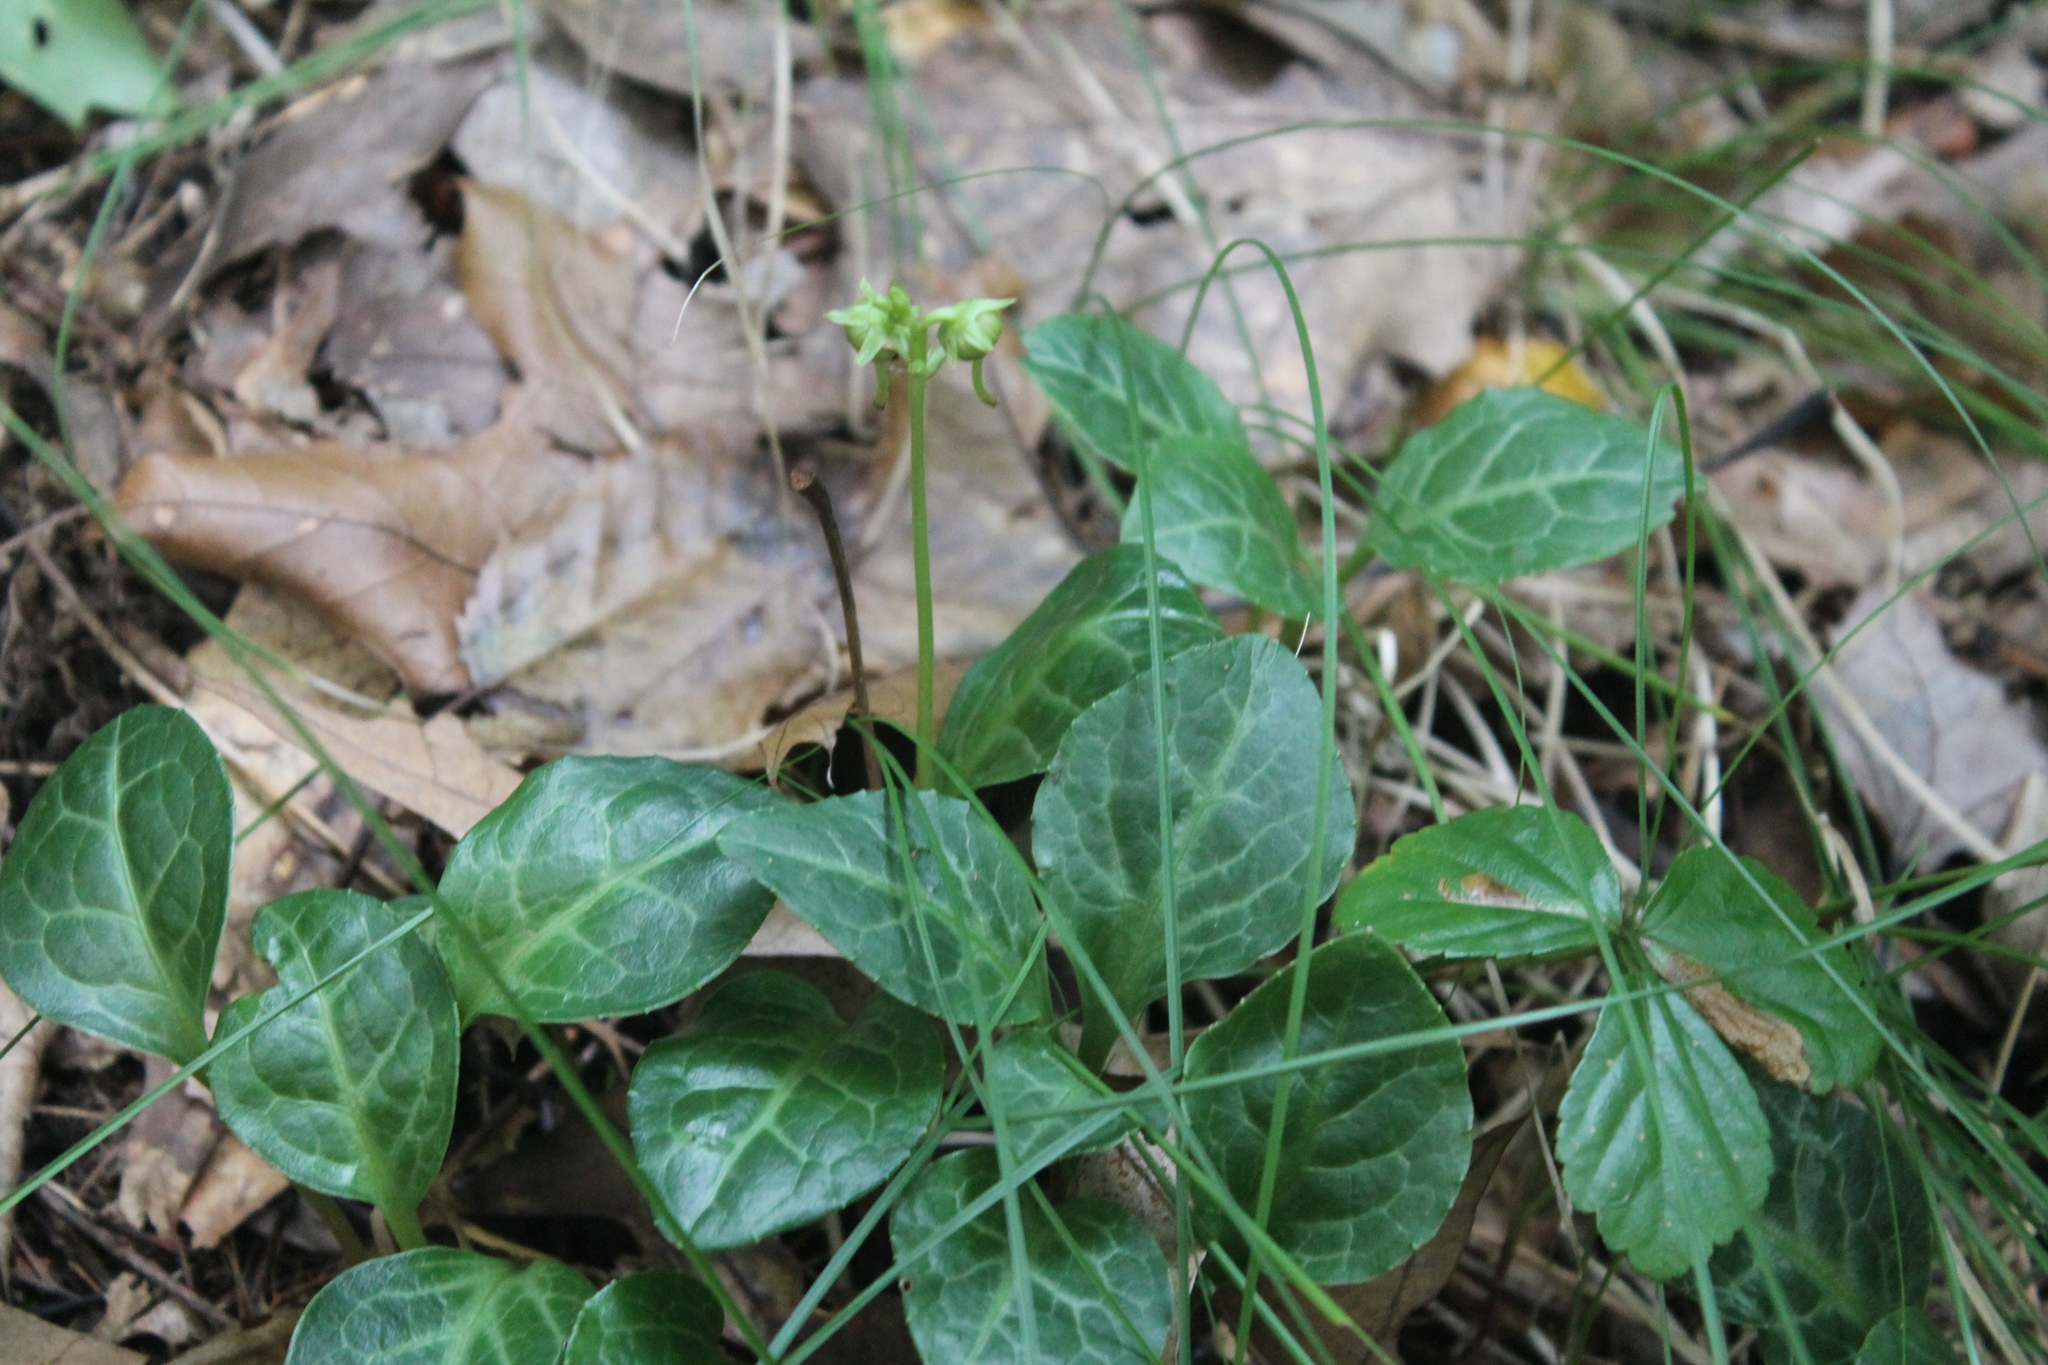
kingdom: Plantae
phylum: Tracheophyta
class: Magnoliopsida
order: Ericales
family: Ericaceae
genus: Pyrola
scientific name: Pyrola americana
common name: American wintergreen
